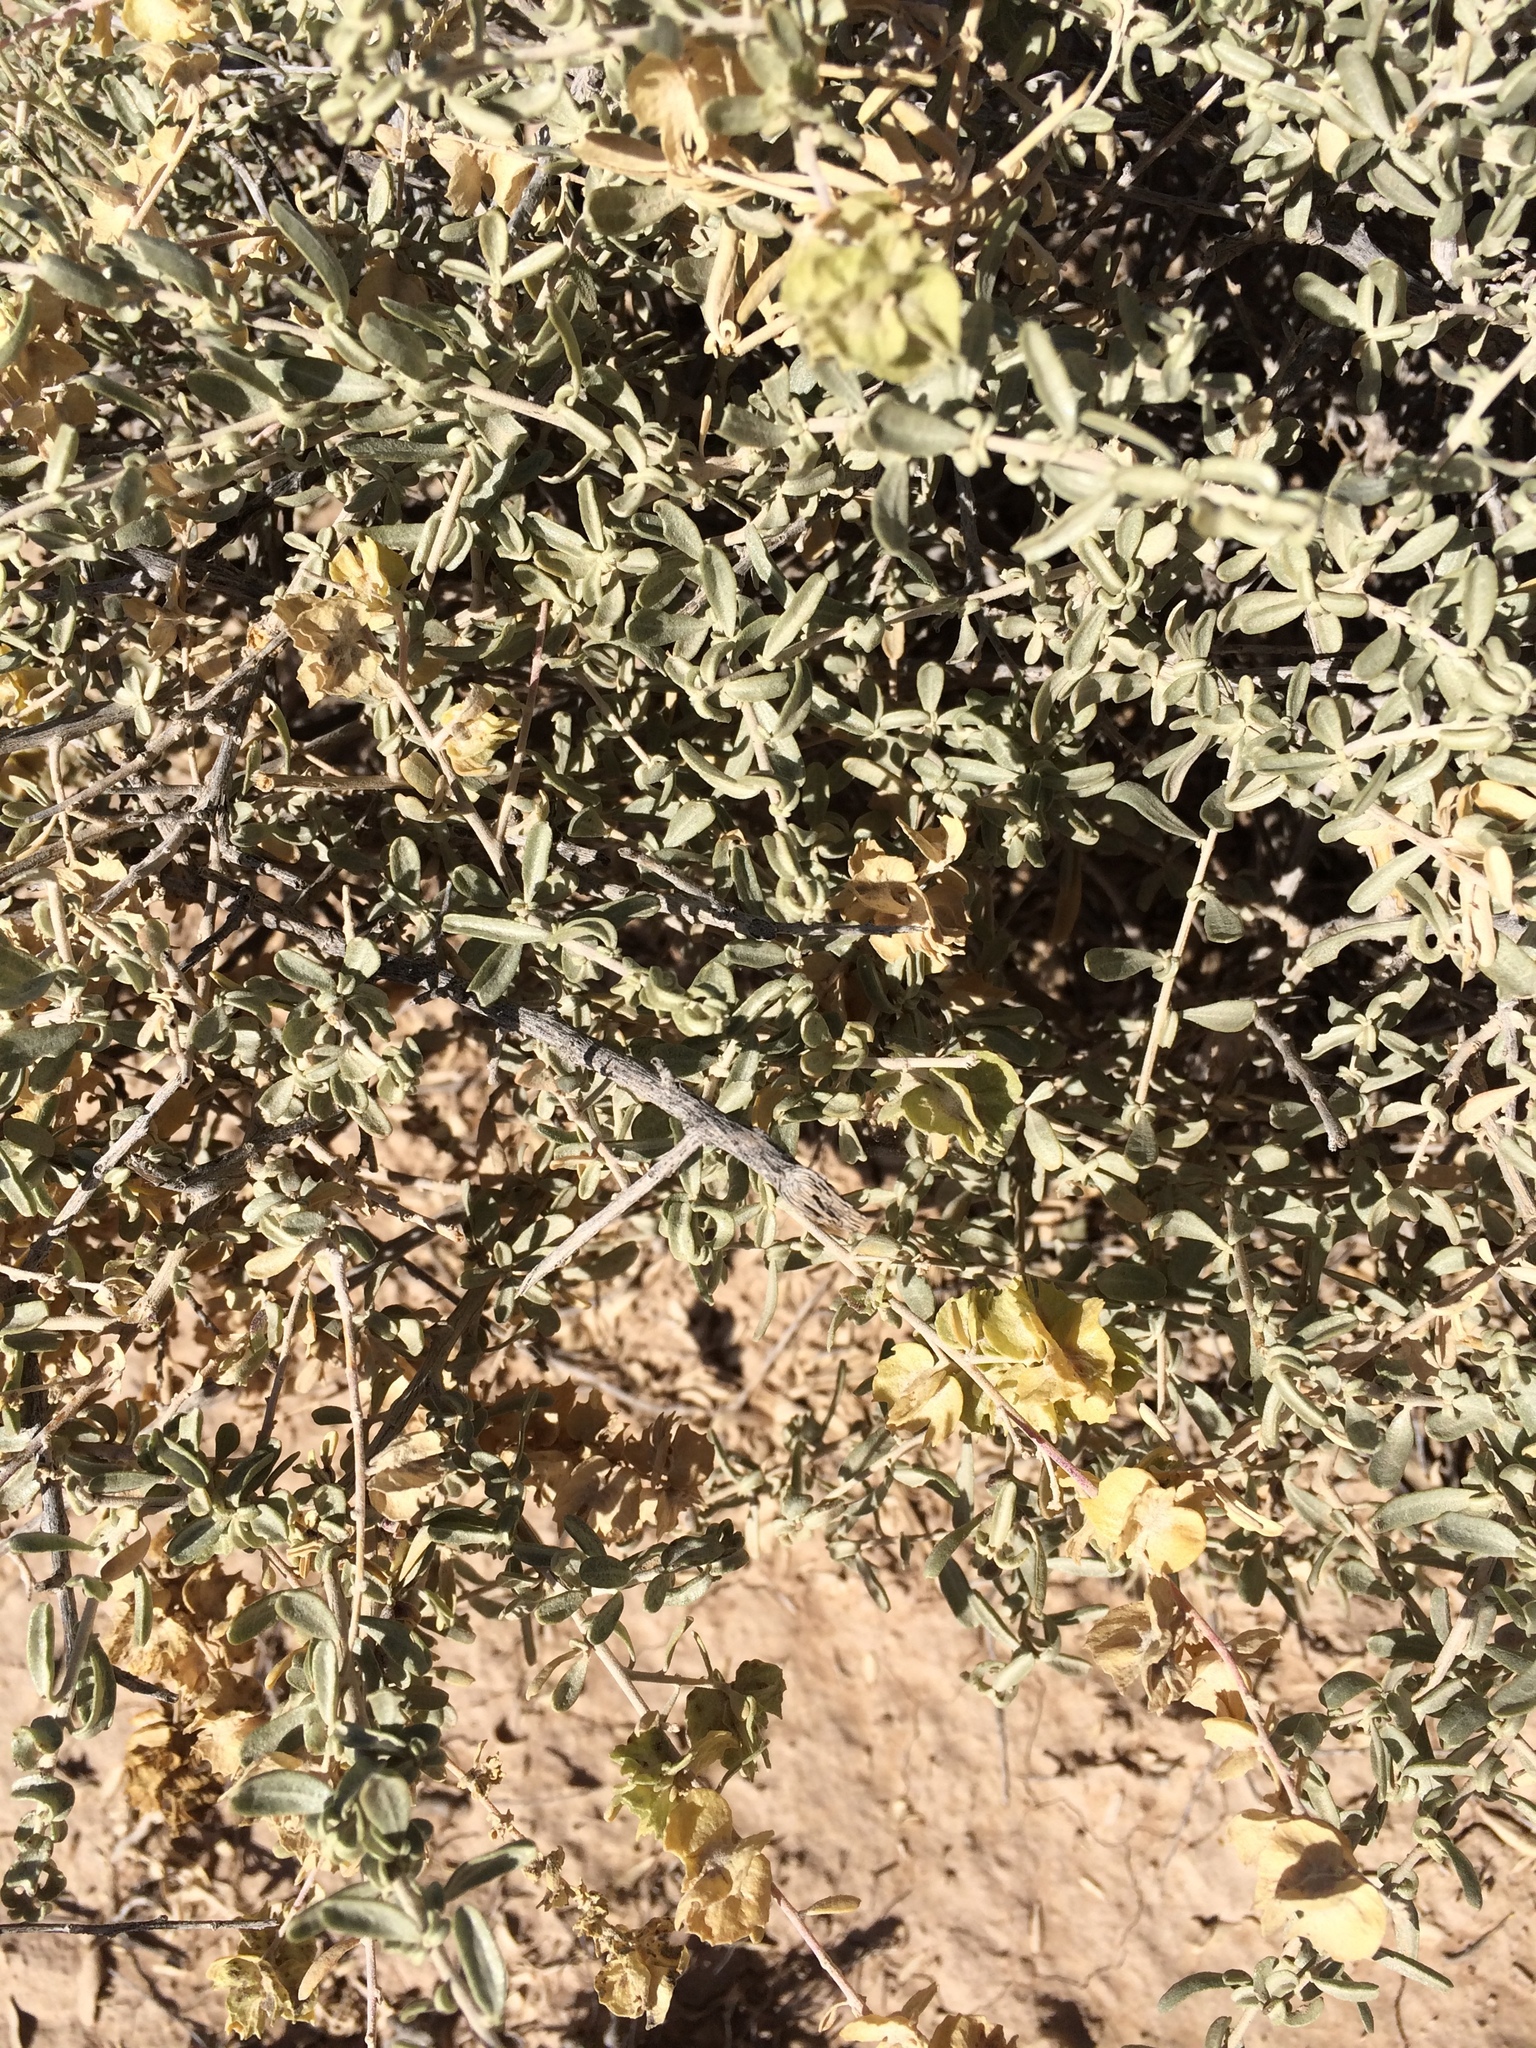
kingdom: Plantae
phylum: Tracheophyta
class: Magnoliopsida
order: Caryophyllales
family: Amaranthaceae
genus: Atriplex
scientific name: Atriplex canescens
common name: Four-wing saltbush
